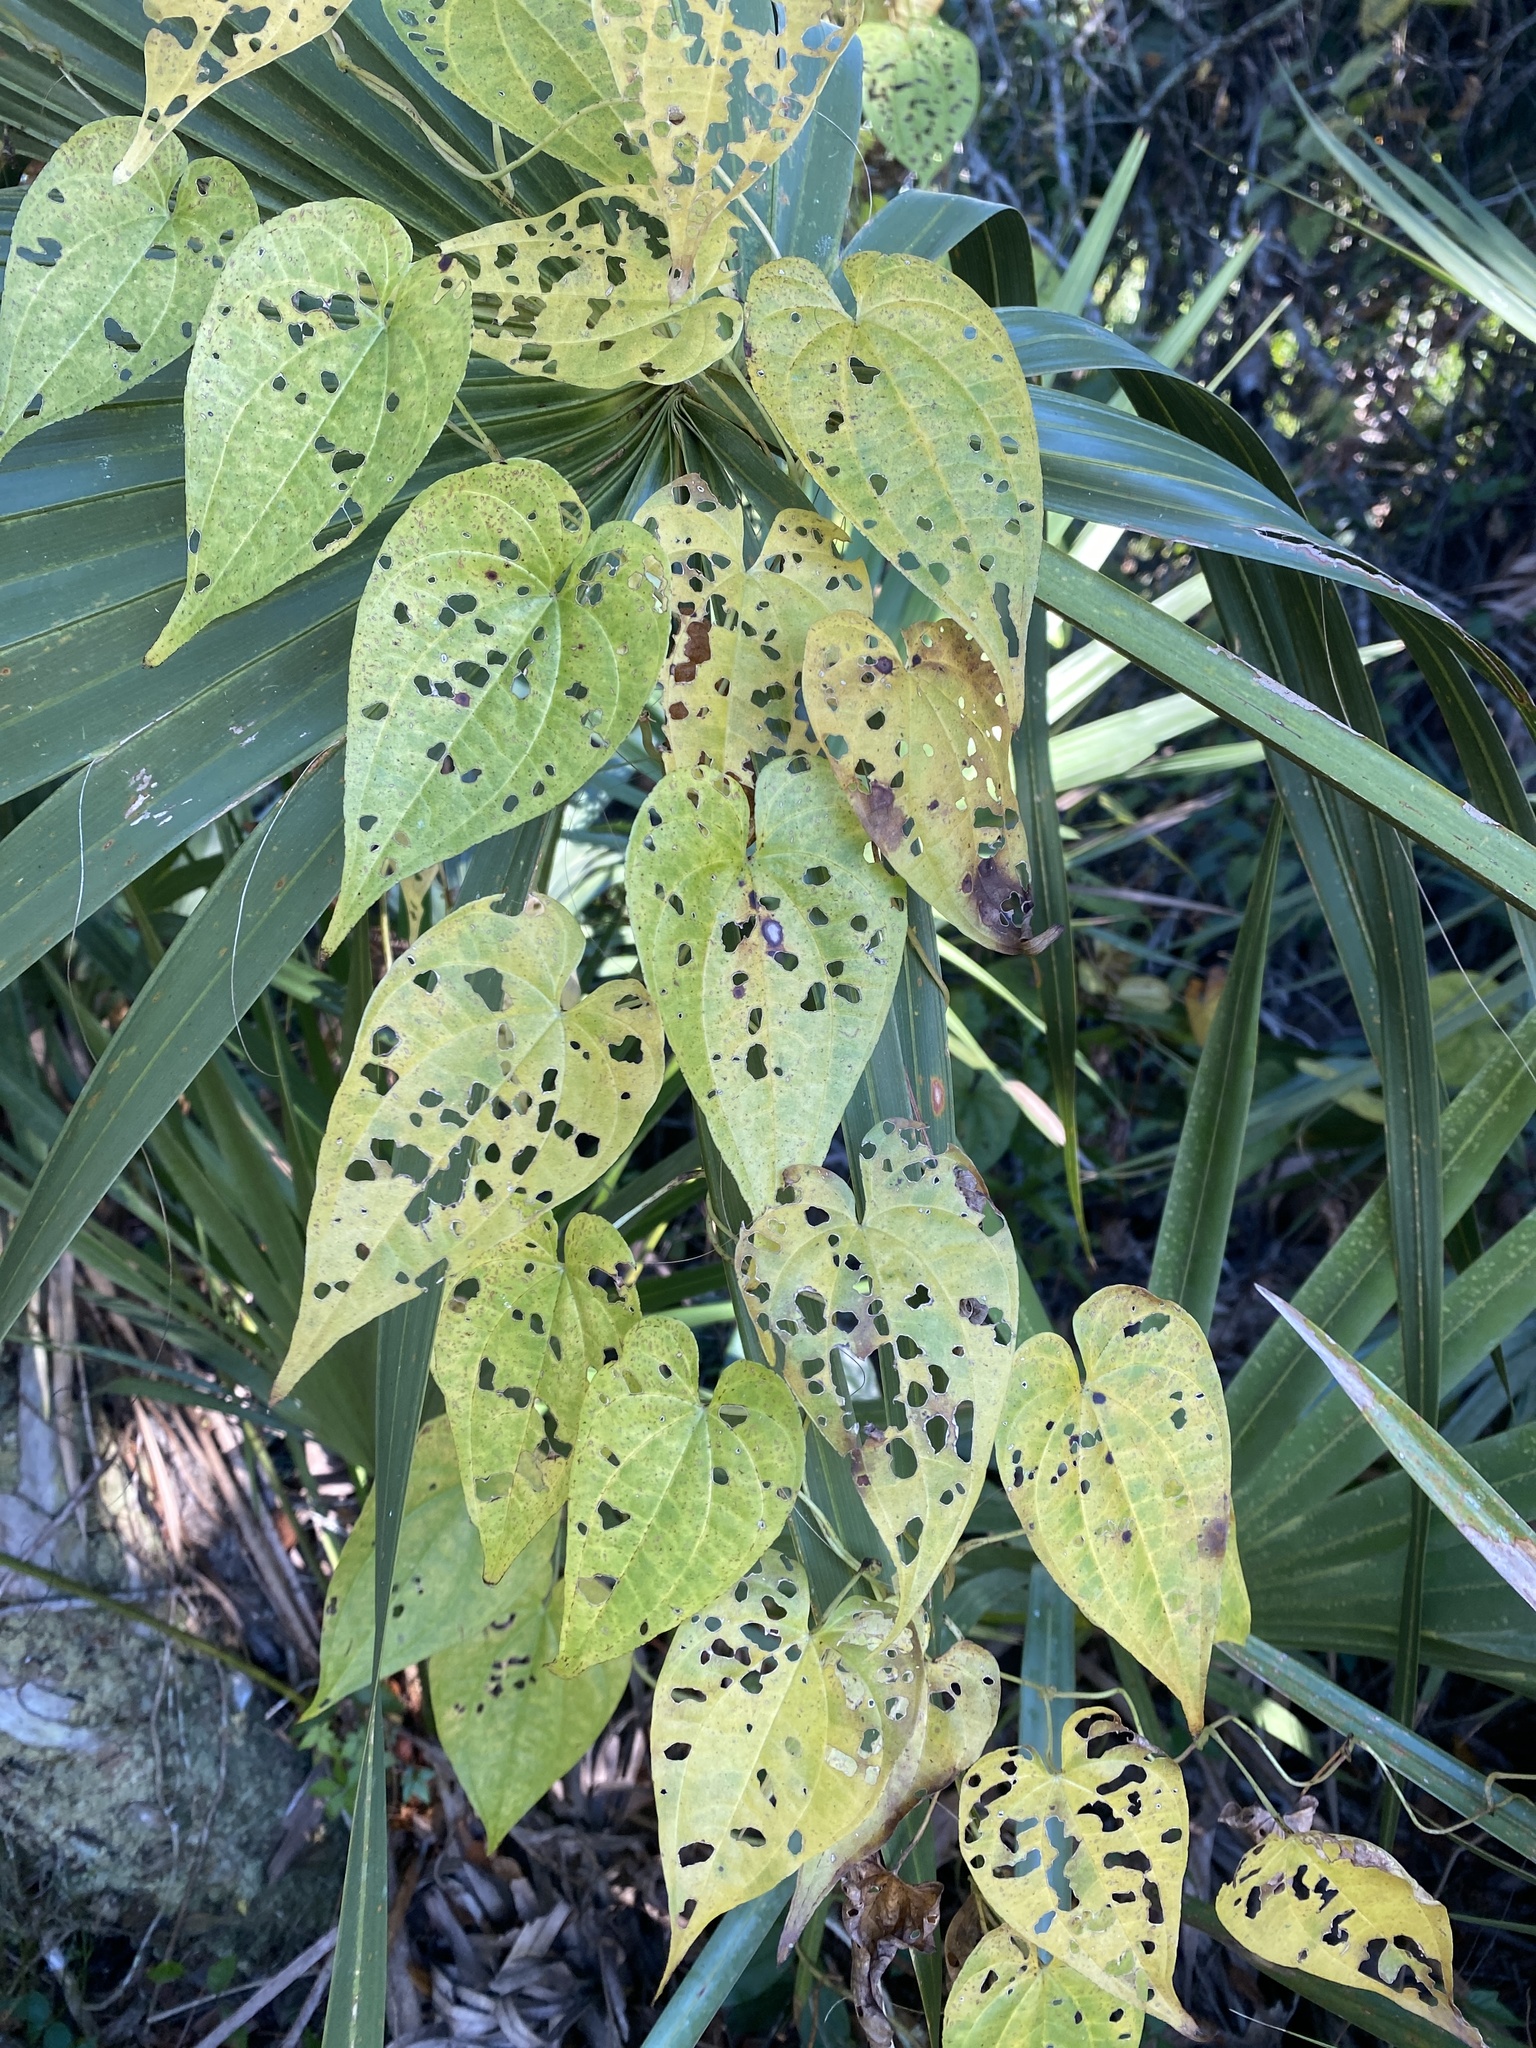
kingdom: Plantae
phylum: Tracheophyta
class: Liliopsida
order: Dioscoreales
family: Dioscoreaceae
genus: Dioscorea
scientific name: Dioscorea bulbifera
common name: Air yam
